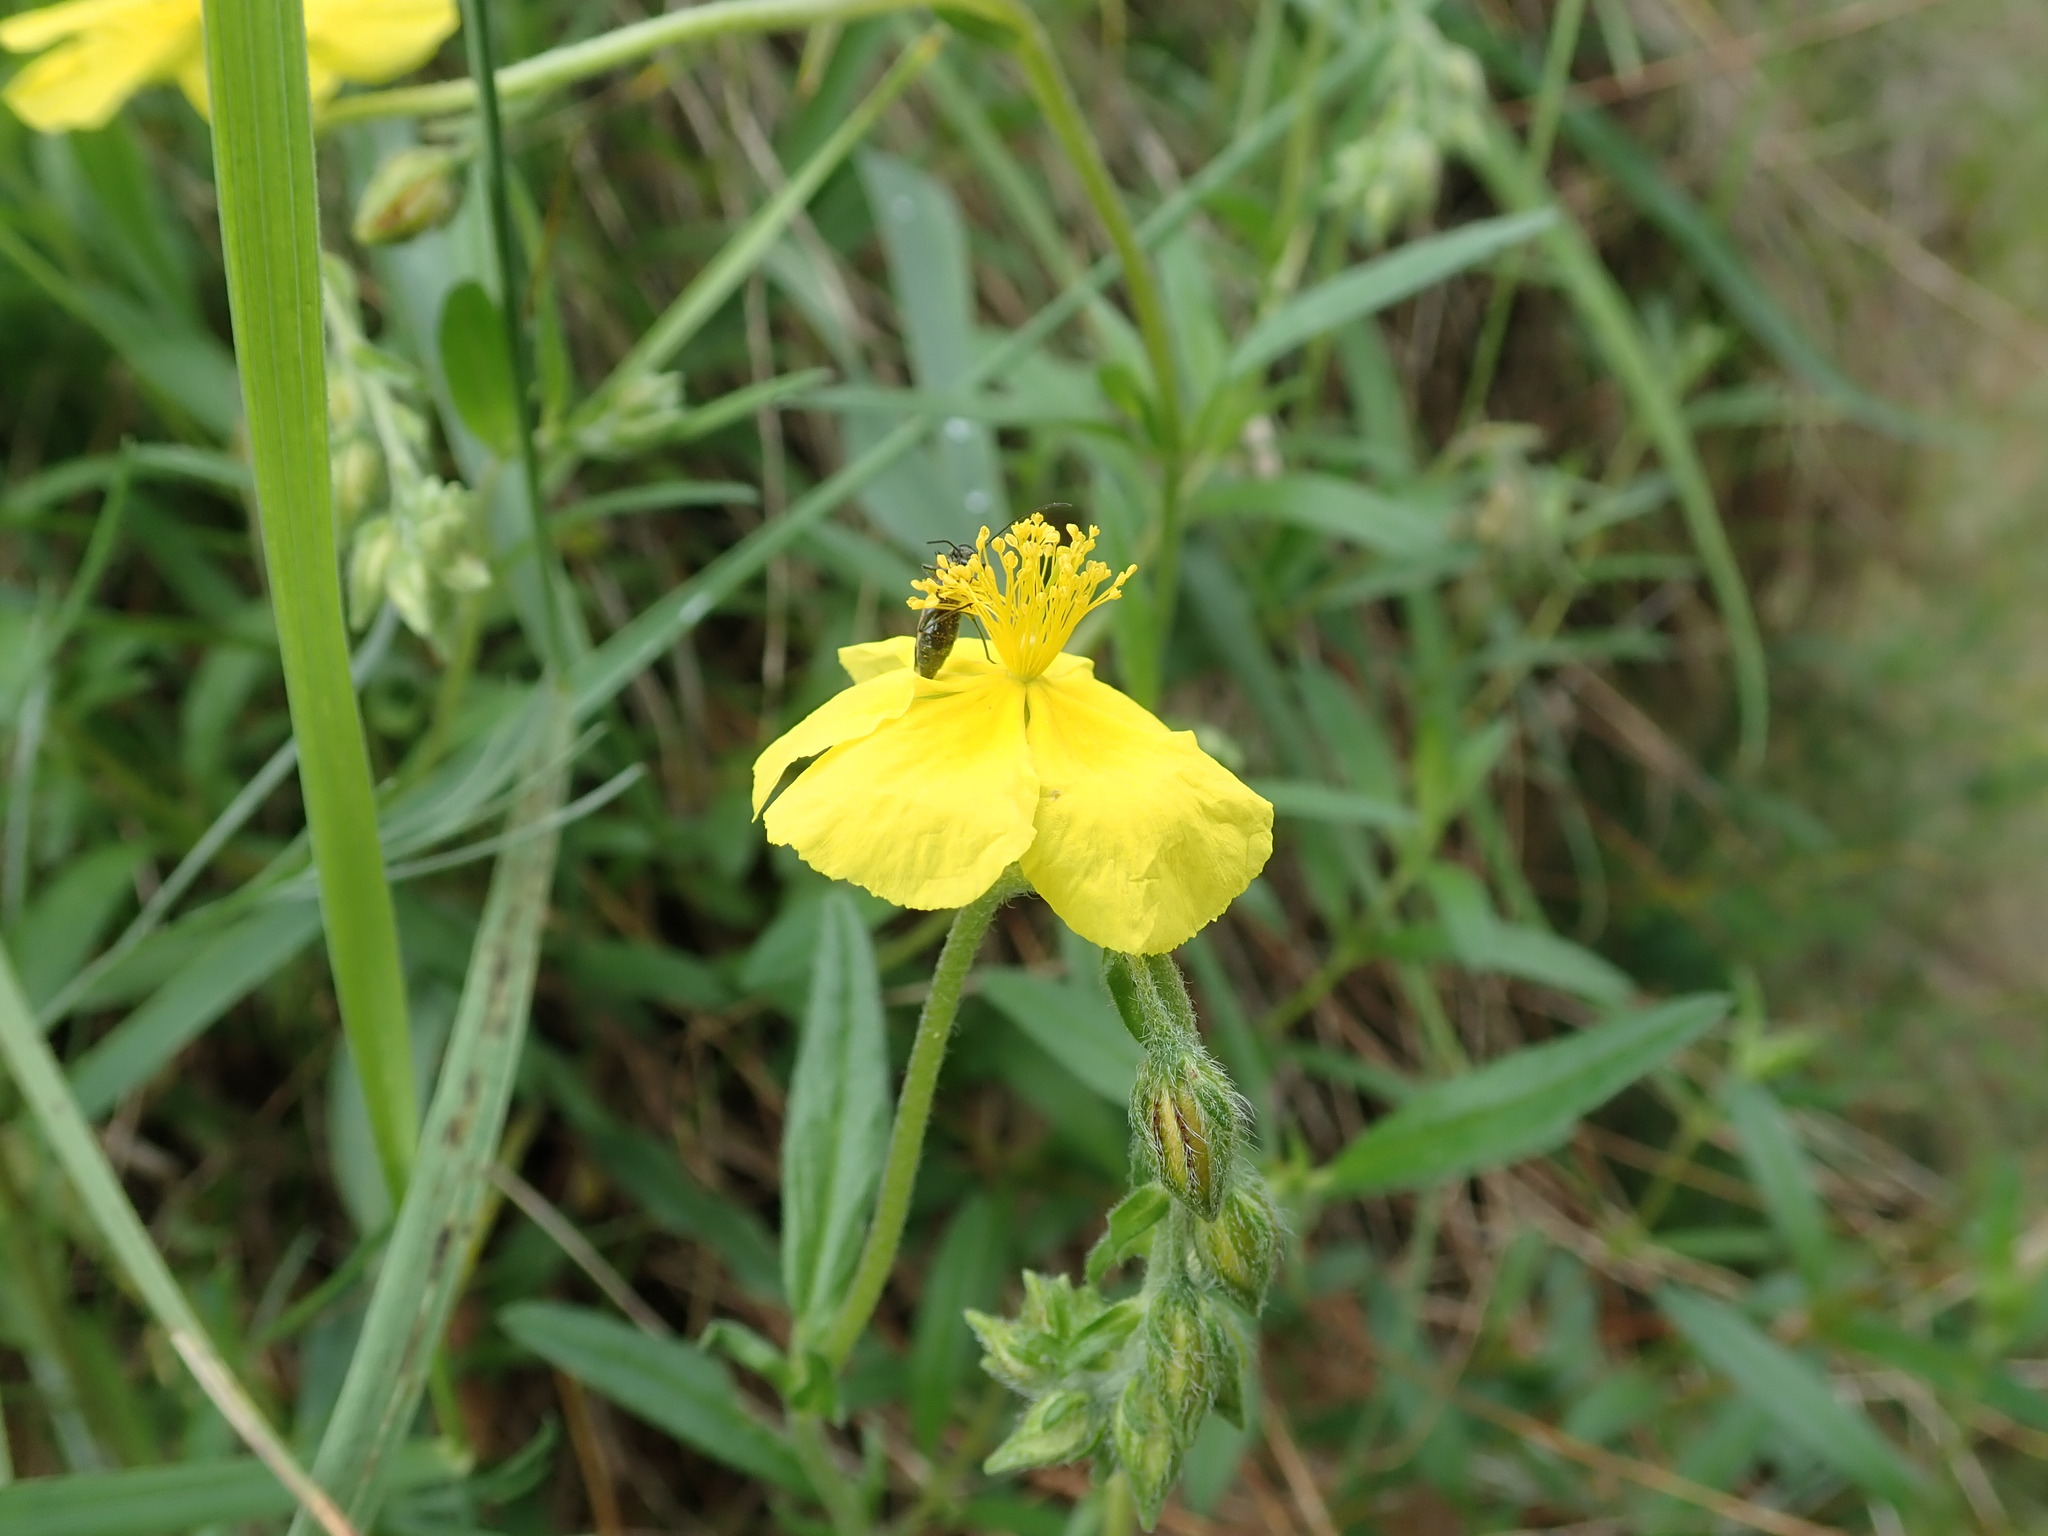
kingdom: Plantae
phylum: Tracheophyta
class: Magnoliopsida
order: Malvales
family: Cistaceae
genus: Helianthemum
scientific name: Helianthemum nummularium
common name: Common rock-rose
